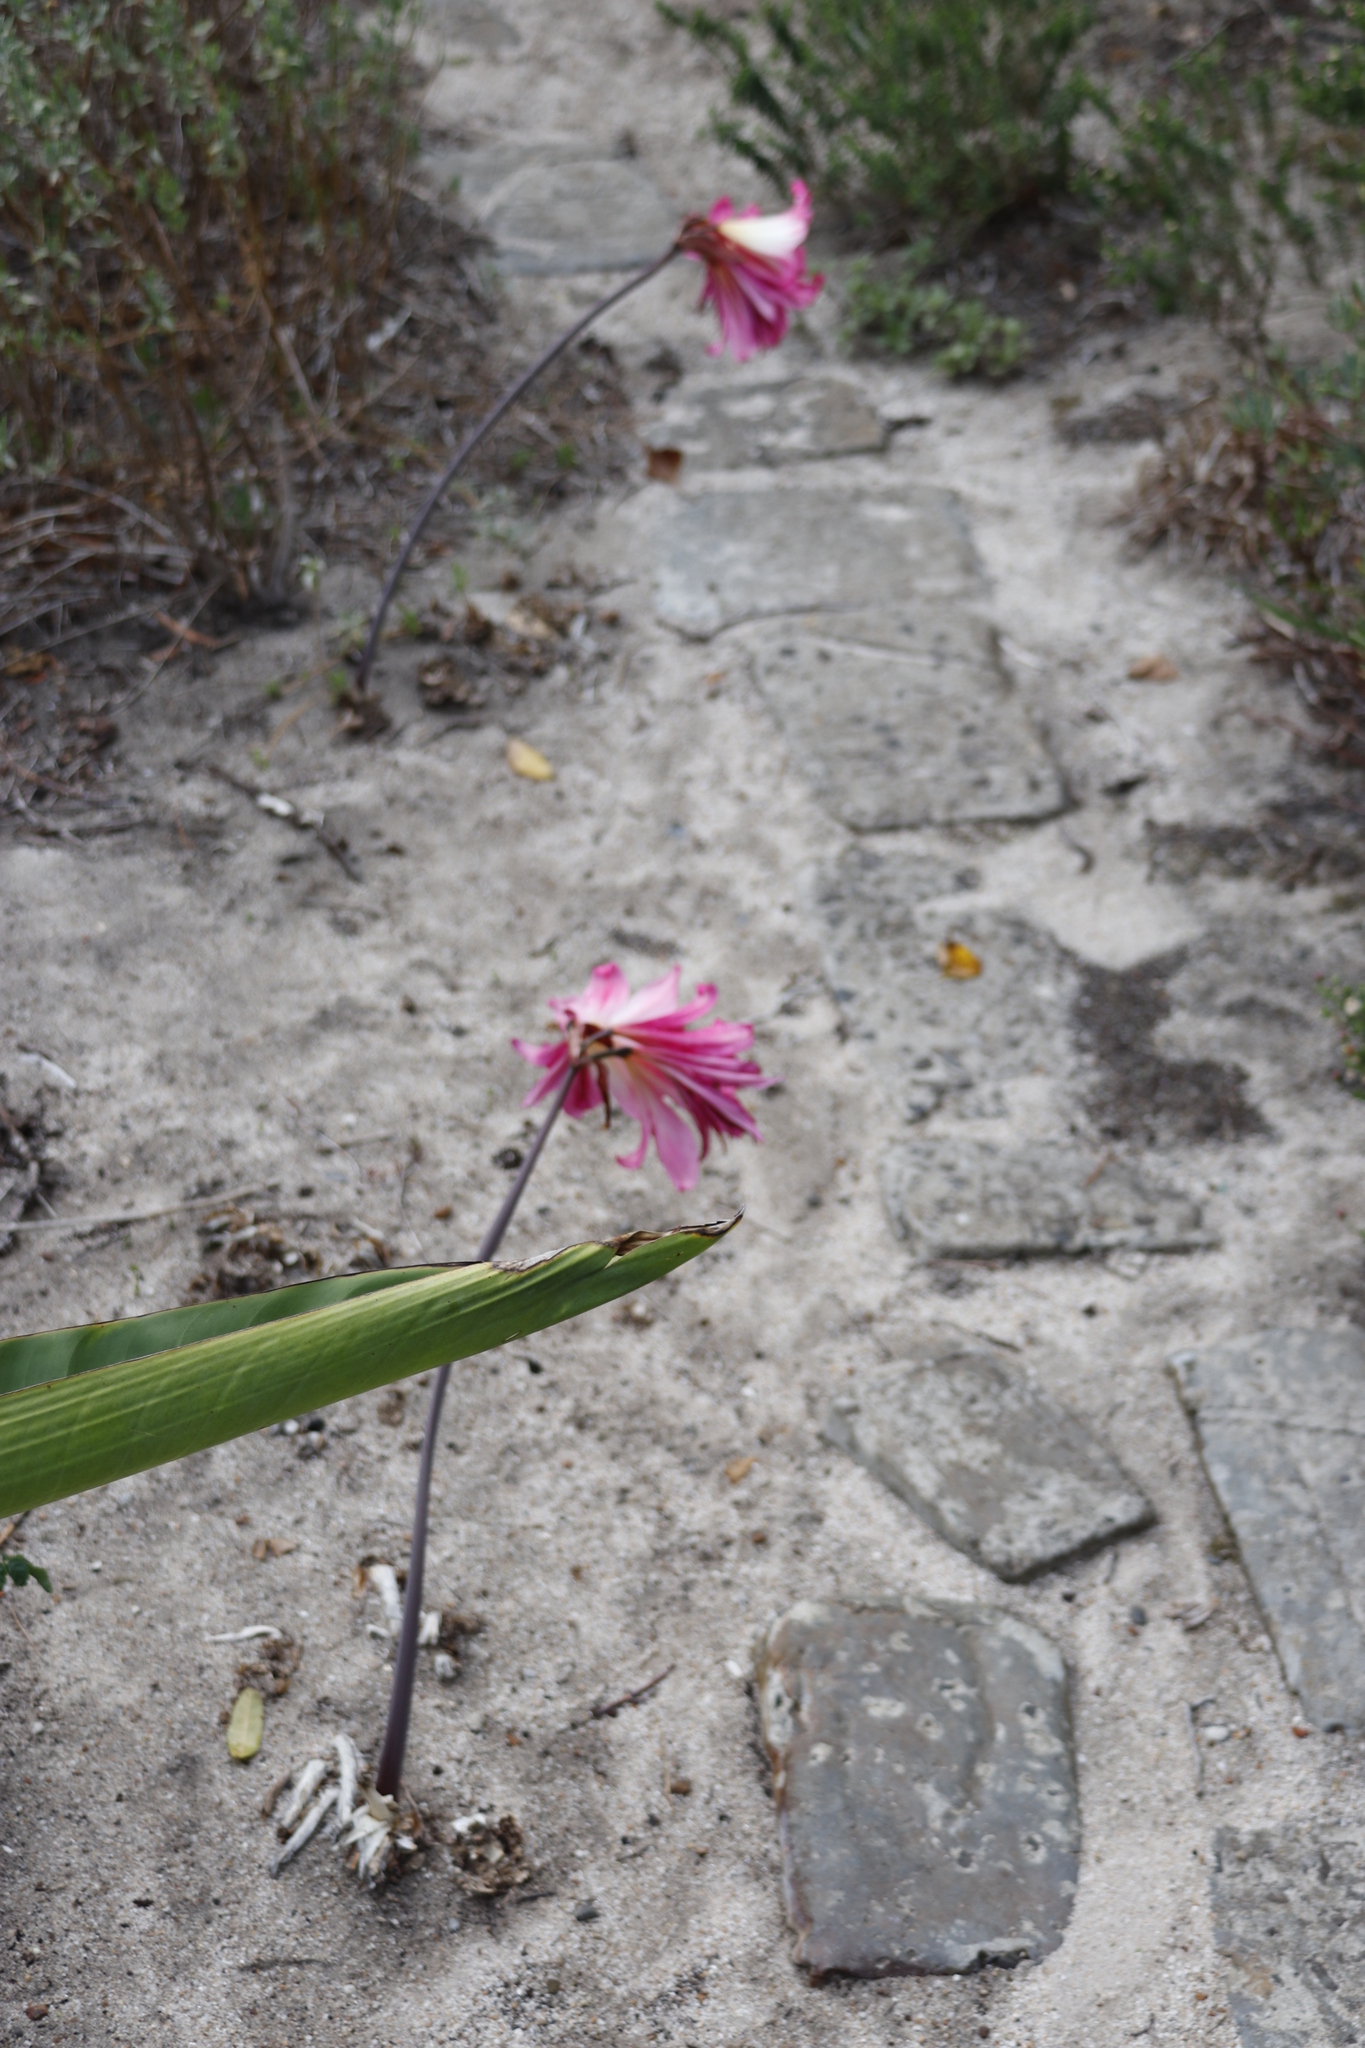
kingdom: Plantae
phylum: Tracheophyta
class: Liliopsida
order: Asparagales
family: Amaryllidaceae
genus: Amaryllis
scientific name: Amaryllis belladonna
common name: Jersey lily
